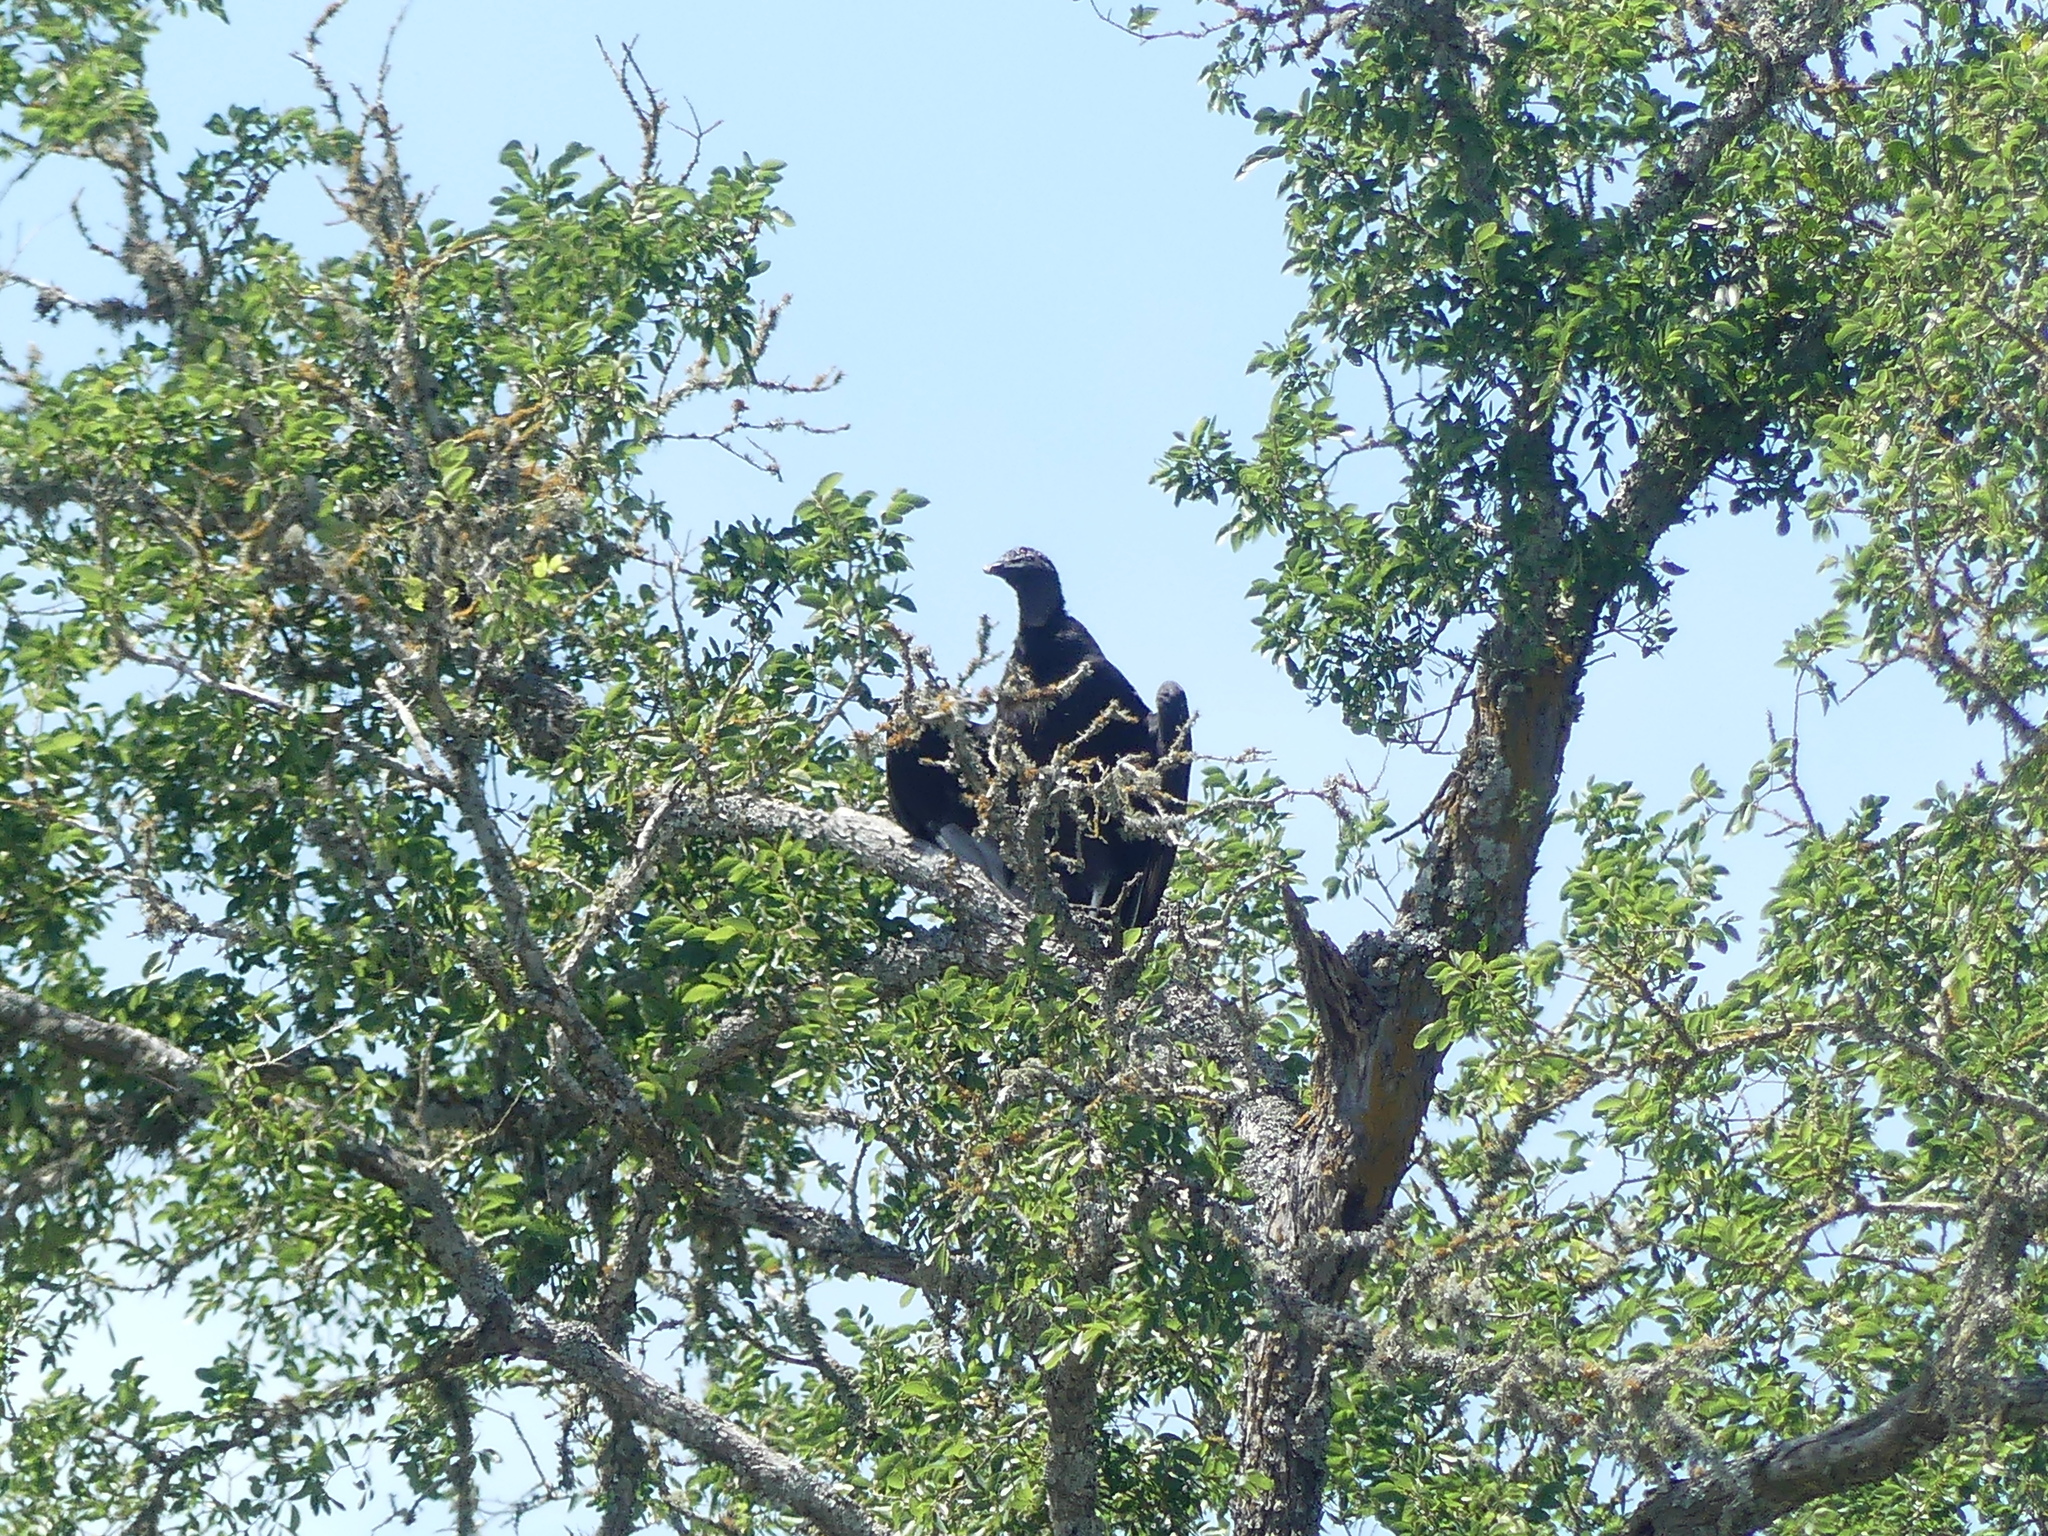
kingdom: Animalia
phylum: Chordata
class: Aves
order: Accipitriformes
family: Cathartidae
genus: Coragyps
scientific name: Coragyps atratus
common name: Black vulture
